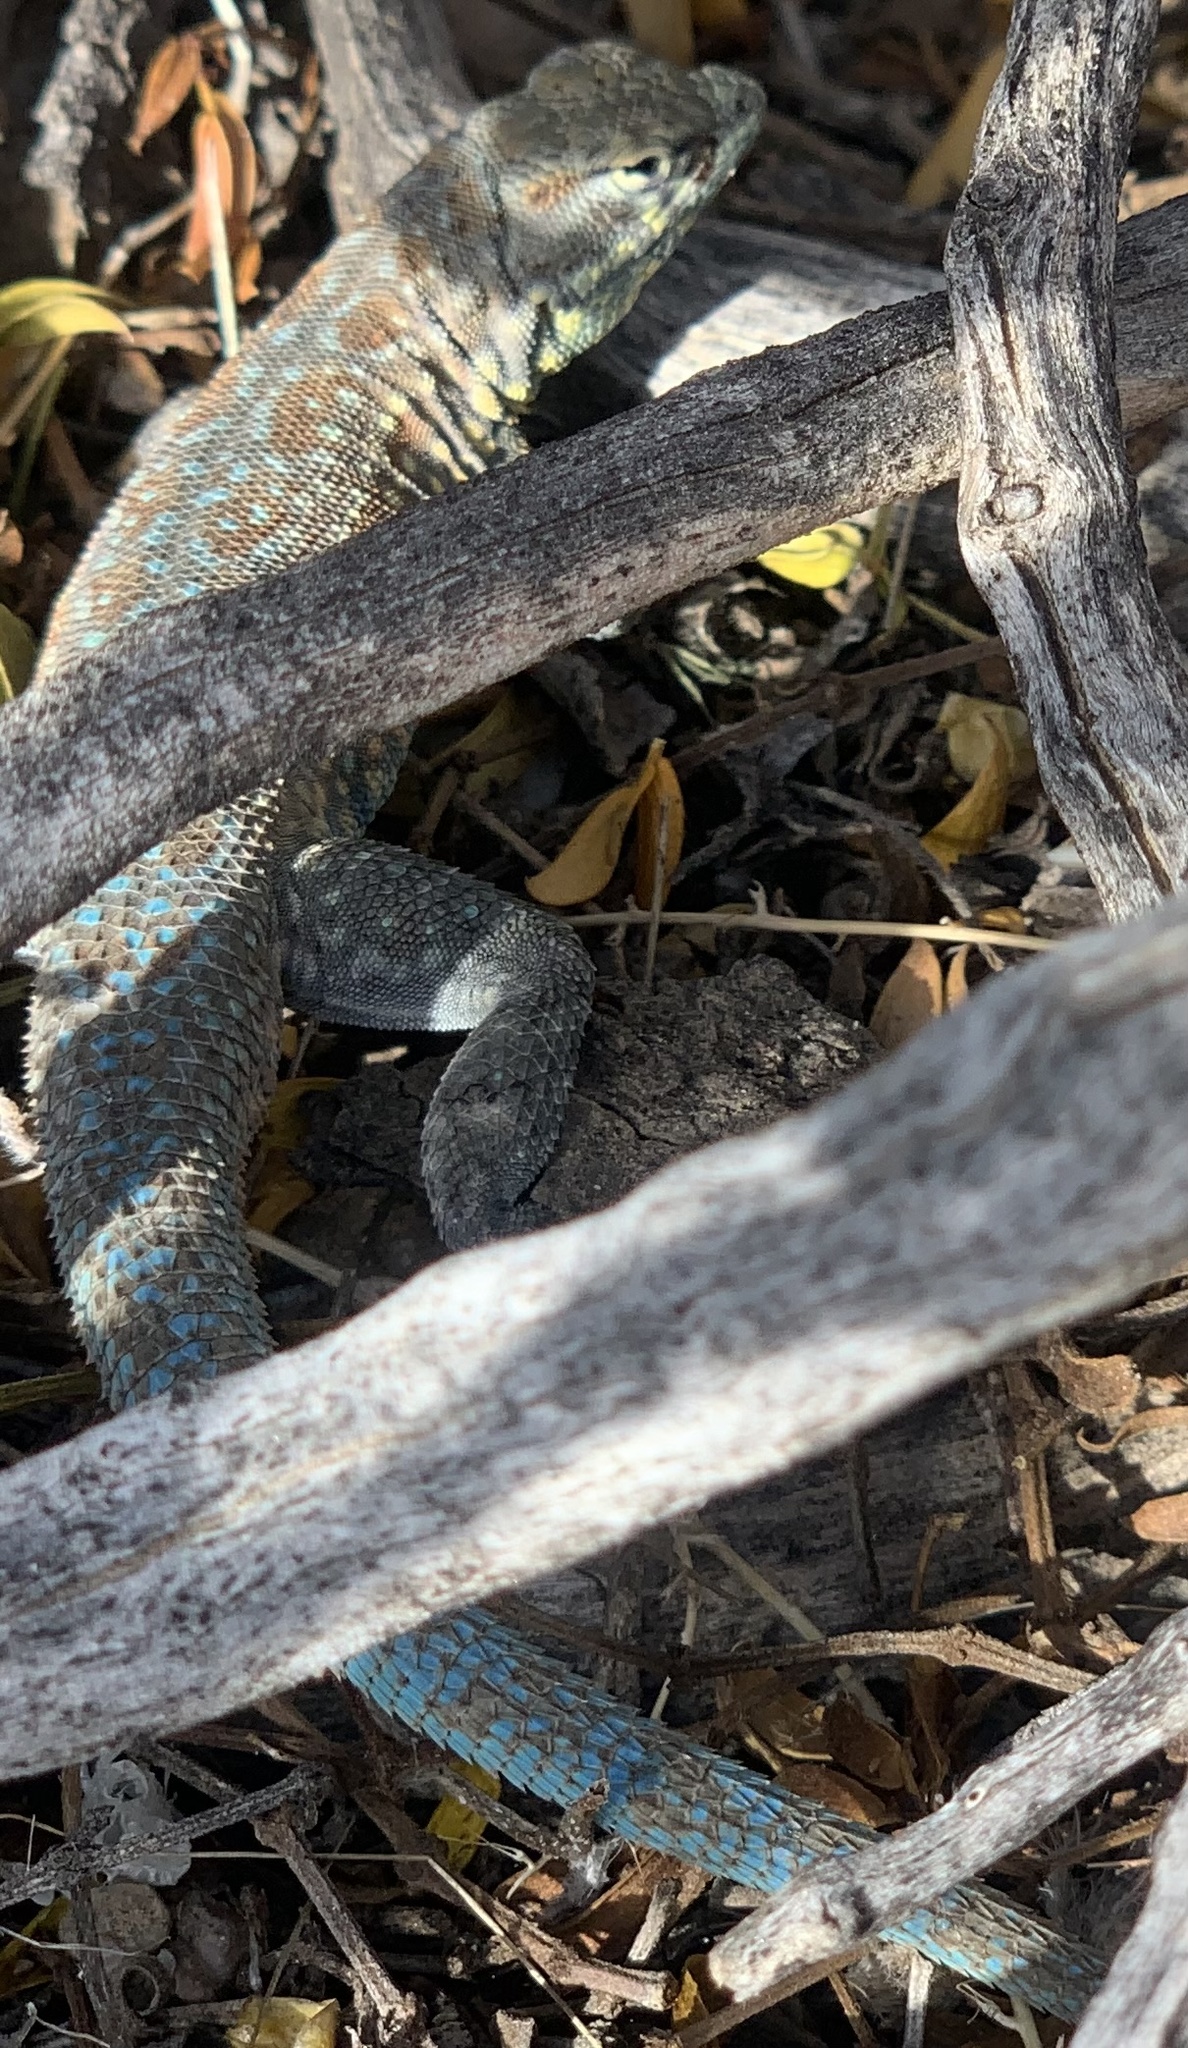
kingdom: Animalia
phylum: Chordata
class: Squamata
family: Phrynosomatidae
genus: Uta
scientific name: Uta stansburiana
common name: Side-blotched lizard
